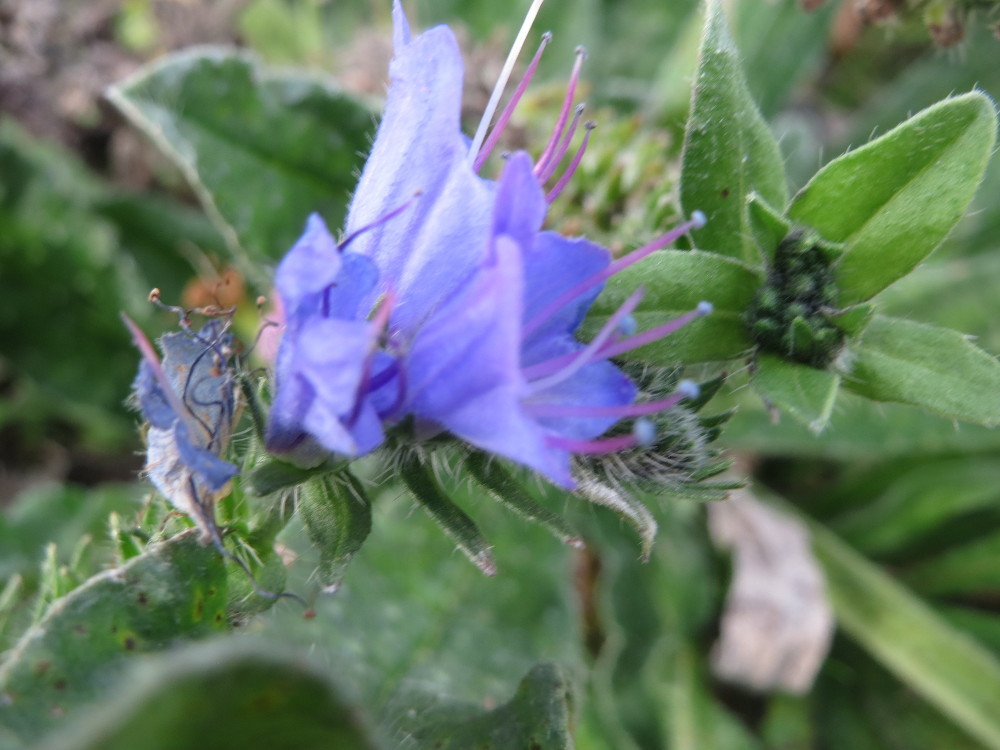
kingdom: Plantae
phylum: Tracheophyta
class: Magnoliopsida
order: Boraginales
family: Boraginaceae
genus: Echium
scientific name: Echium vulgare
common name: Common viper's bugloss
